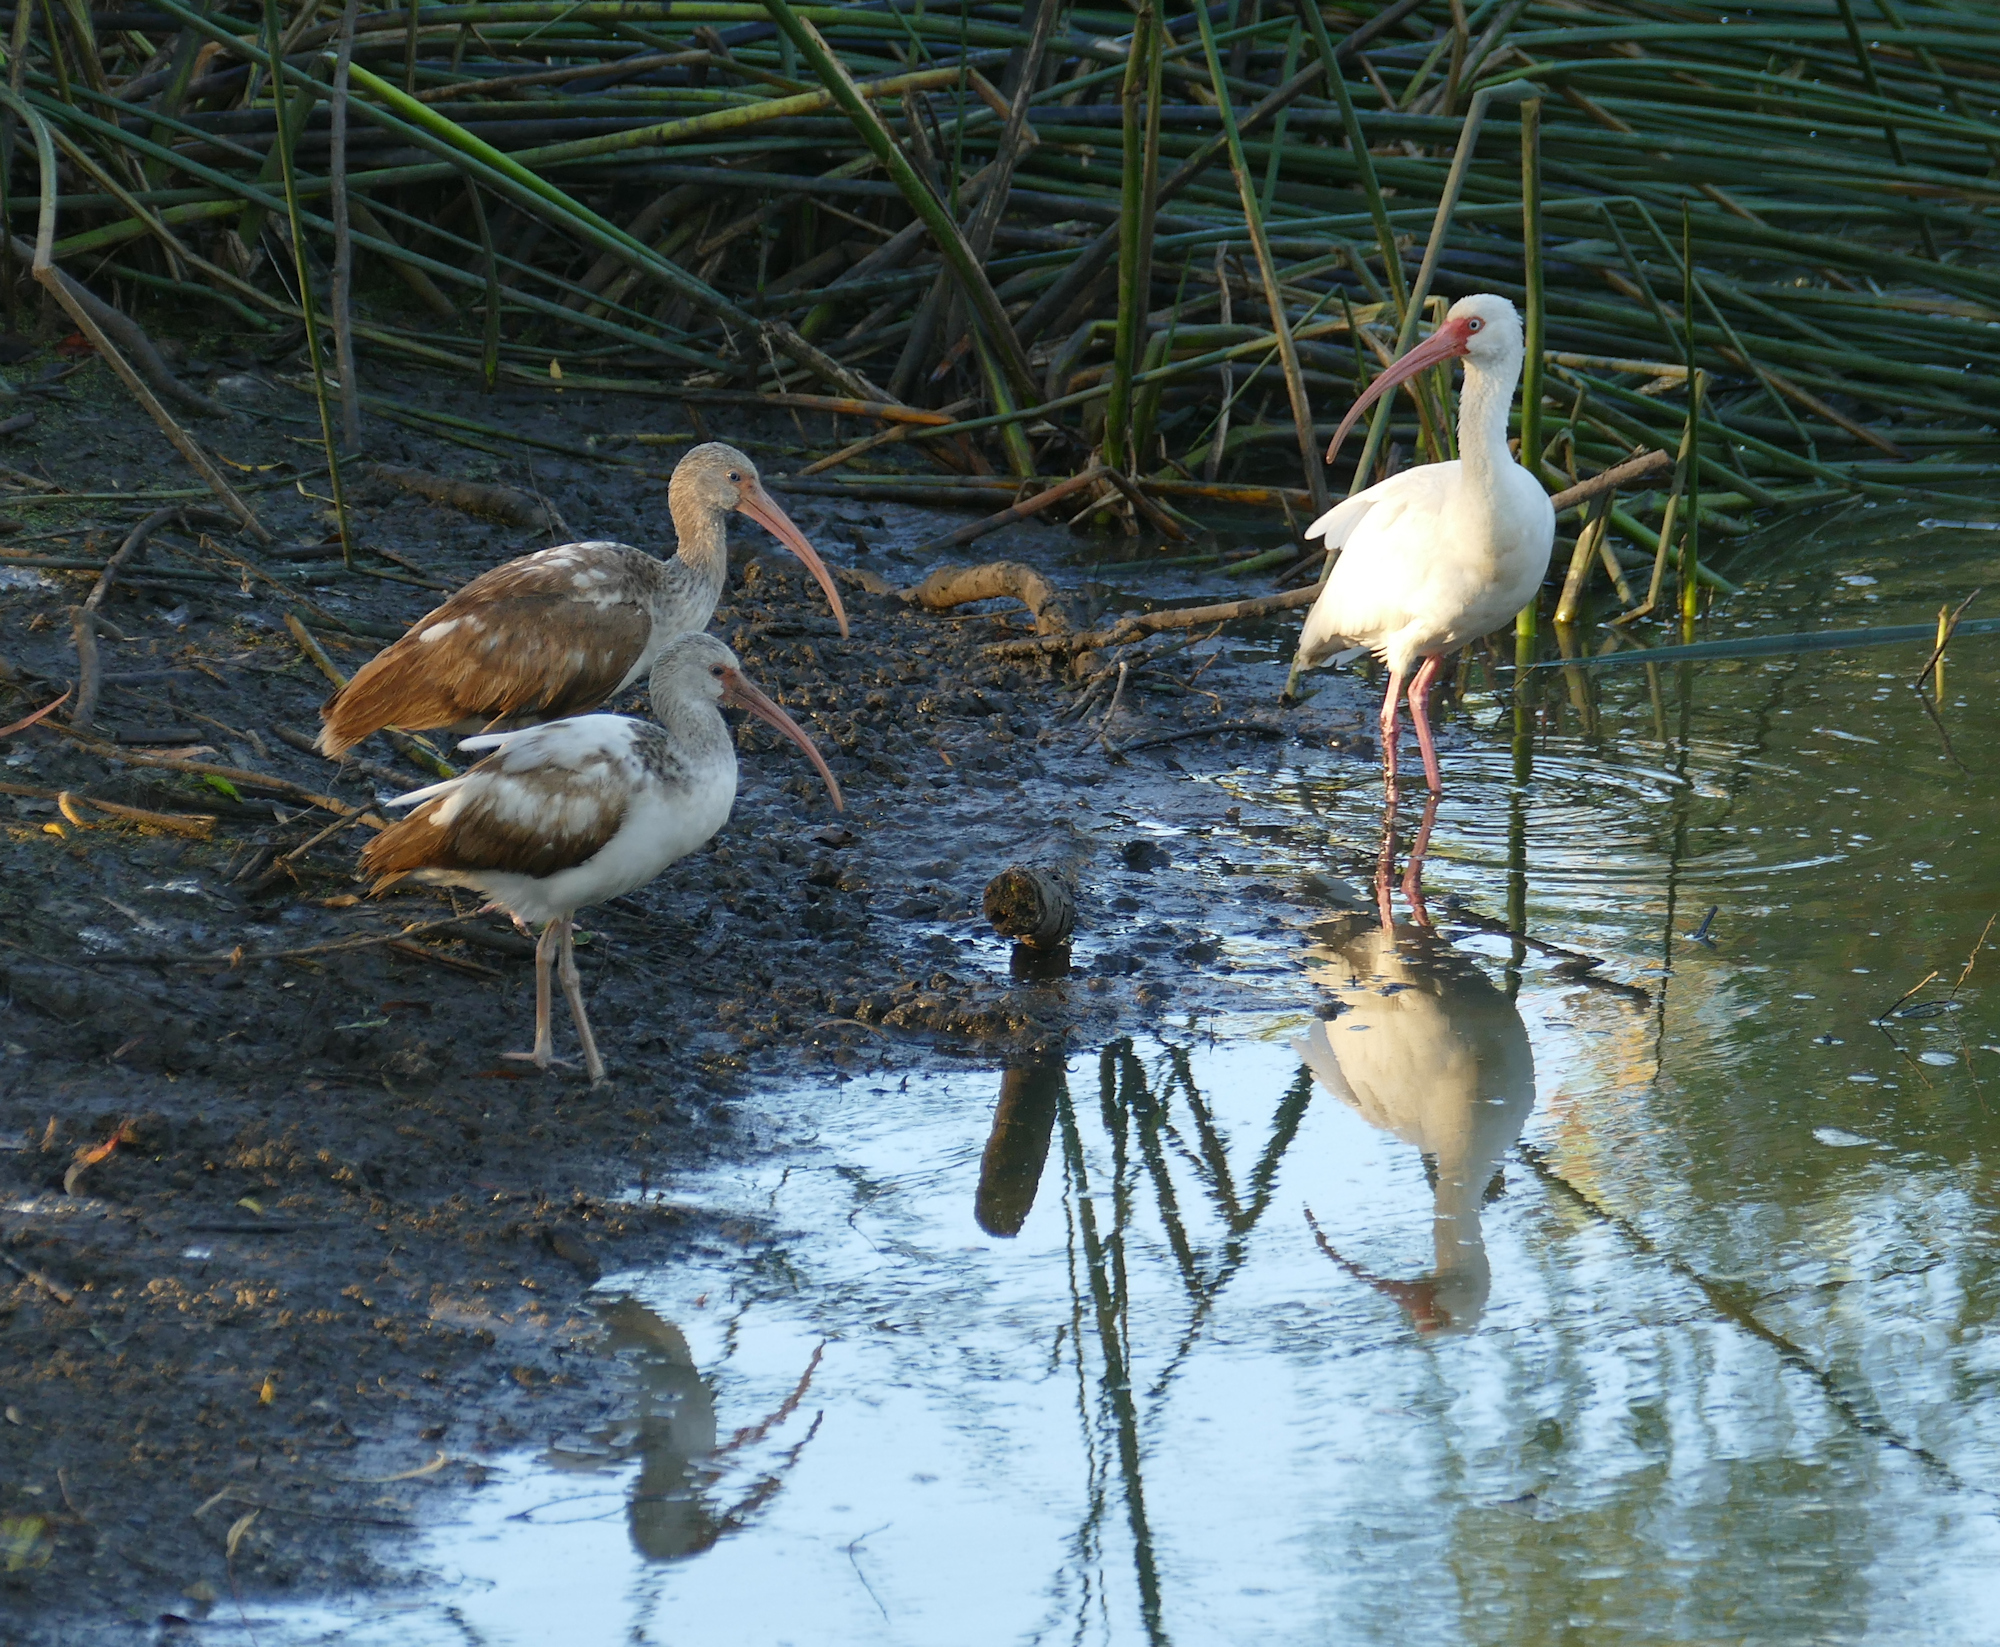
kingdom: Animalia
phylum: Chordata
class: Aves
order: Pelecaniformes
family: Threskiornithidae
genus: Eudocimus
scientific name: Eudocimus albus
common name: White ibis
